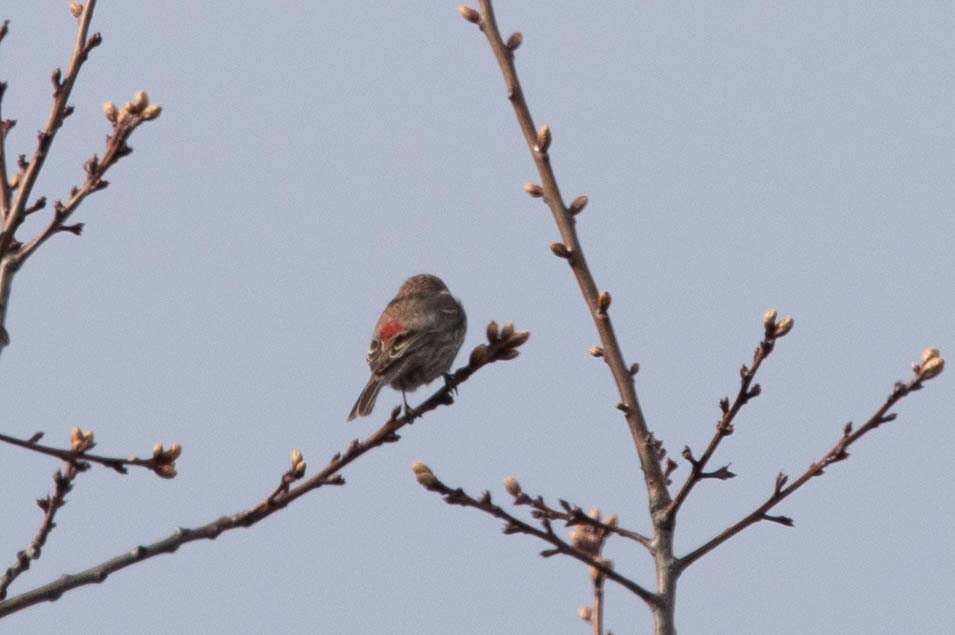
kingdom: Animalia
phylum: Chordata
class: Aves
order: Passeriformes
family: Fringillidae
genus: Haemorhous
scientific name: Haemorhous mexicanus
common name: House finch
